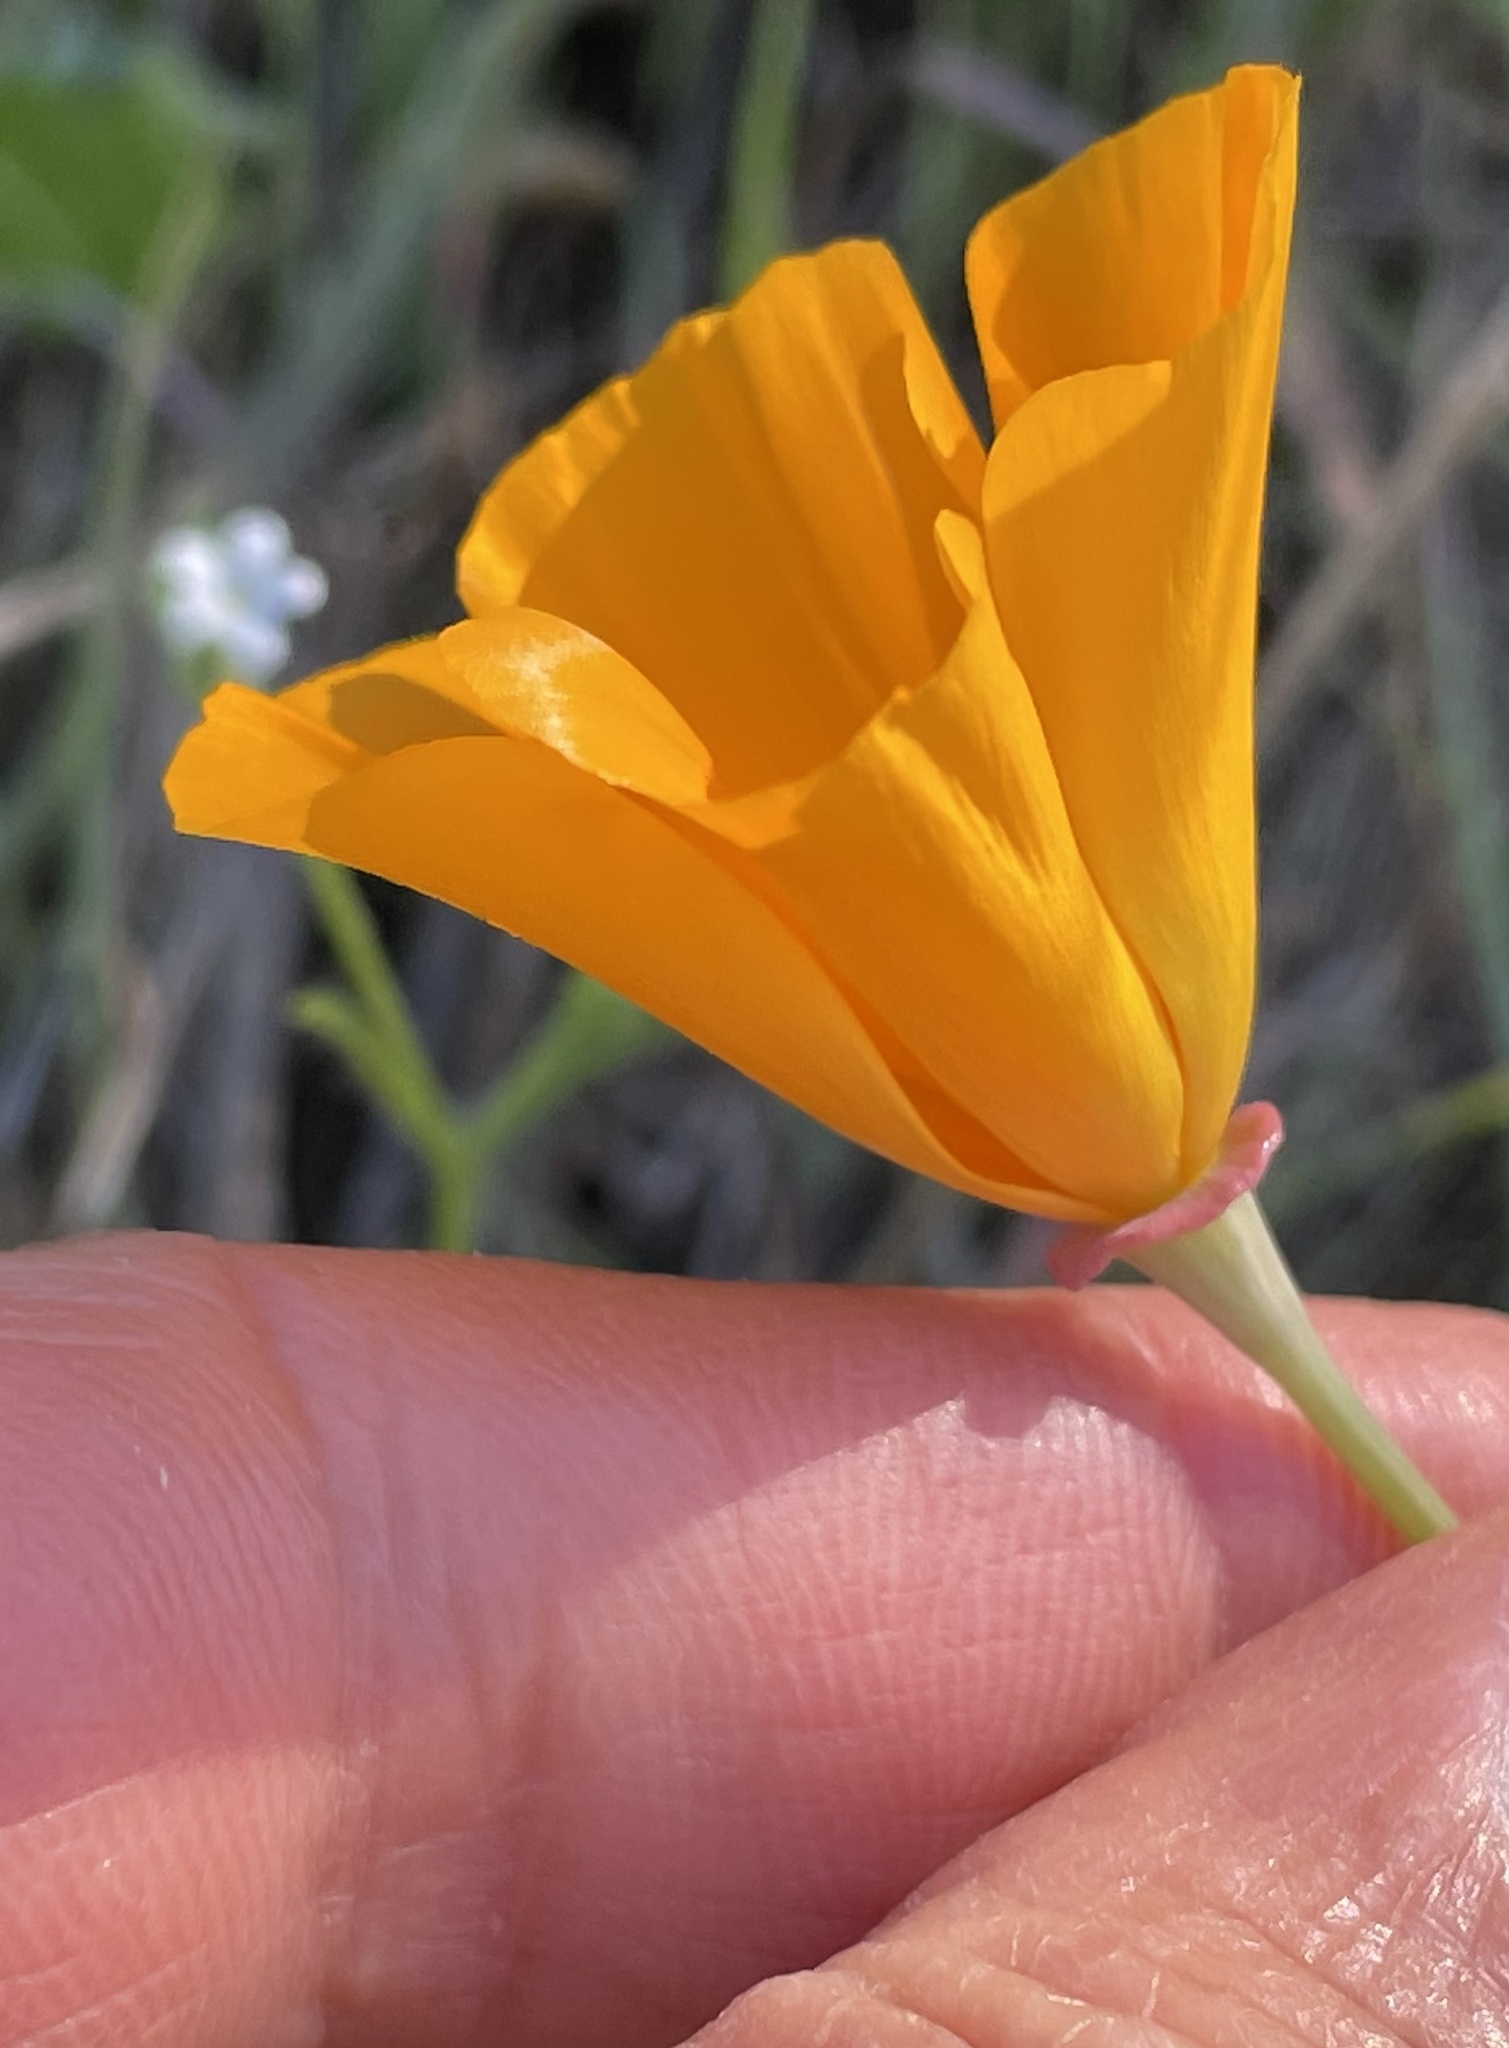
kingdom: Plantae
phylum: Tracheophyta
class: Magnoliopsida
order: Ranunculales
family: Papaveraceae
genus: Eschscholzia
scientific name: Eschscholzia californica
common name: California poppy
